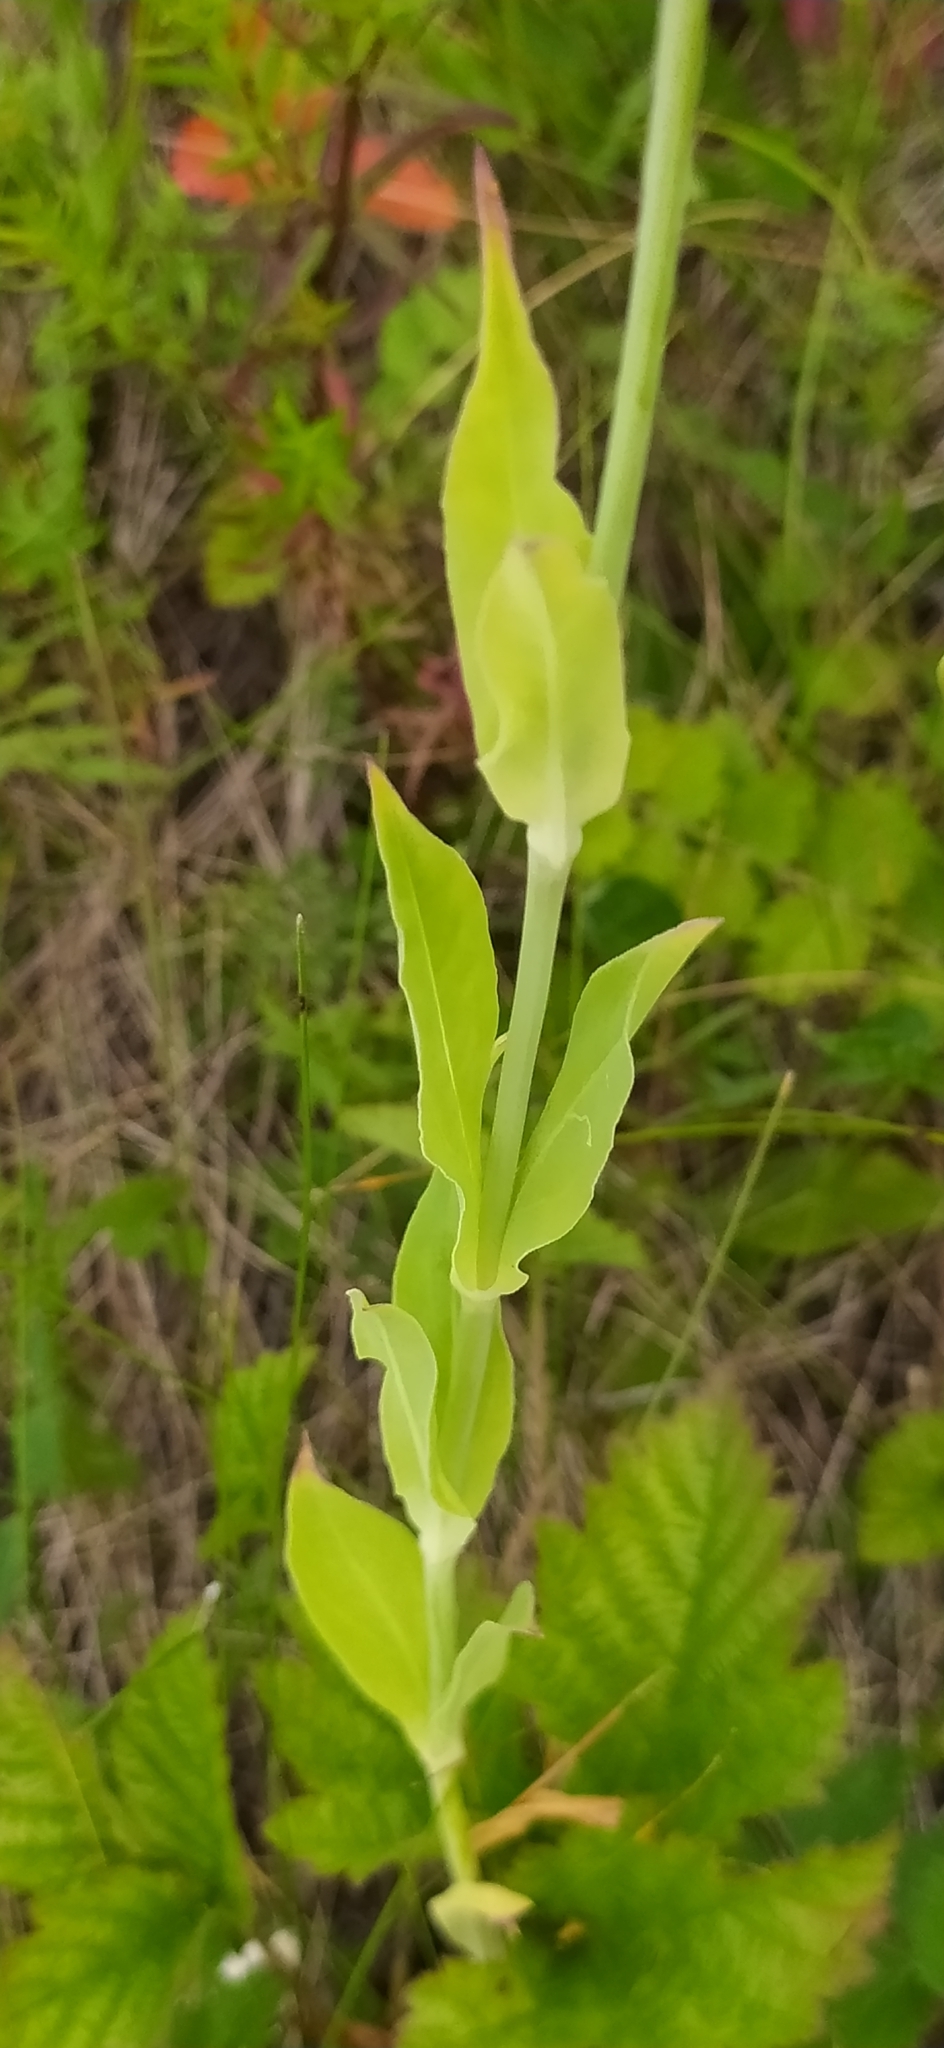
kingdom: Plantae
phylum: Tracheophyta
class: Magnoliopsida
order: Caryophyllales
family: Caryophyllaceae
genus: Silene
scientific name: Silene vulgaris
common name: Bladder campion
